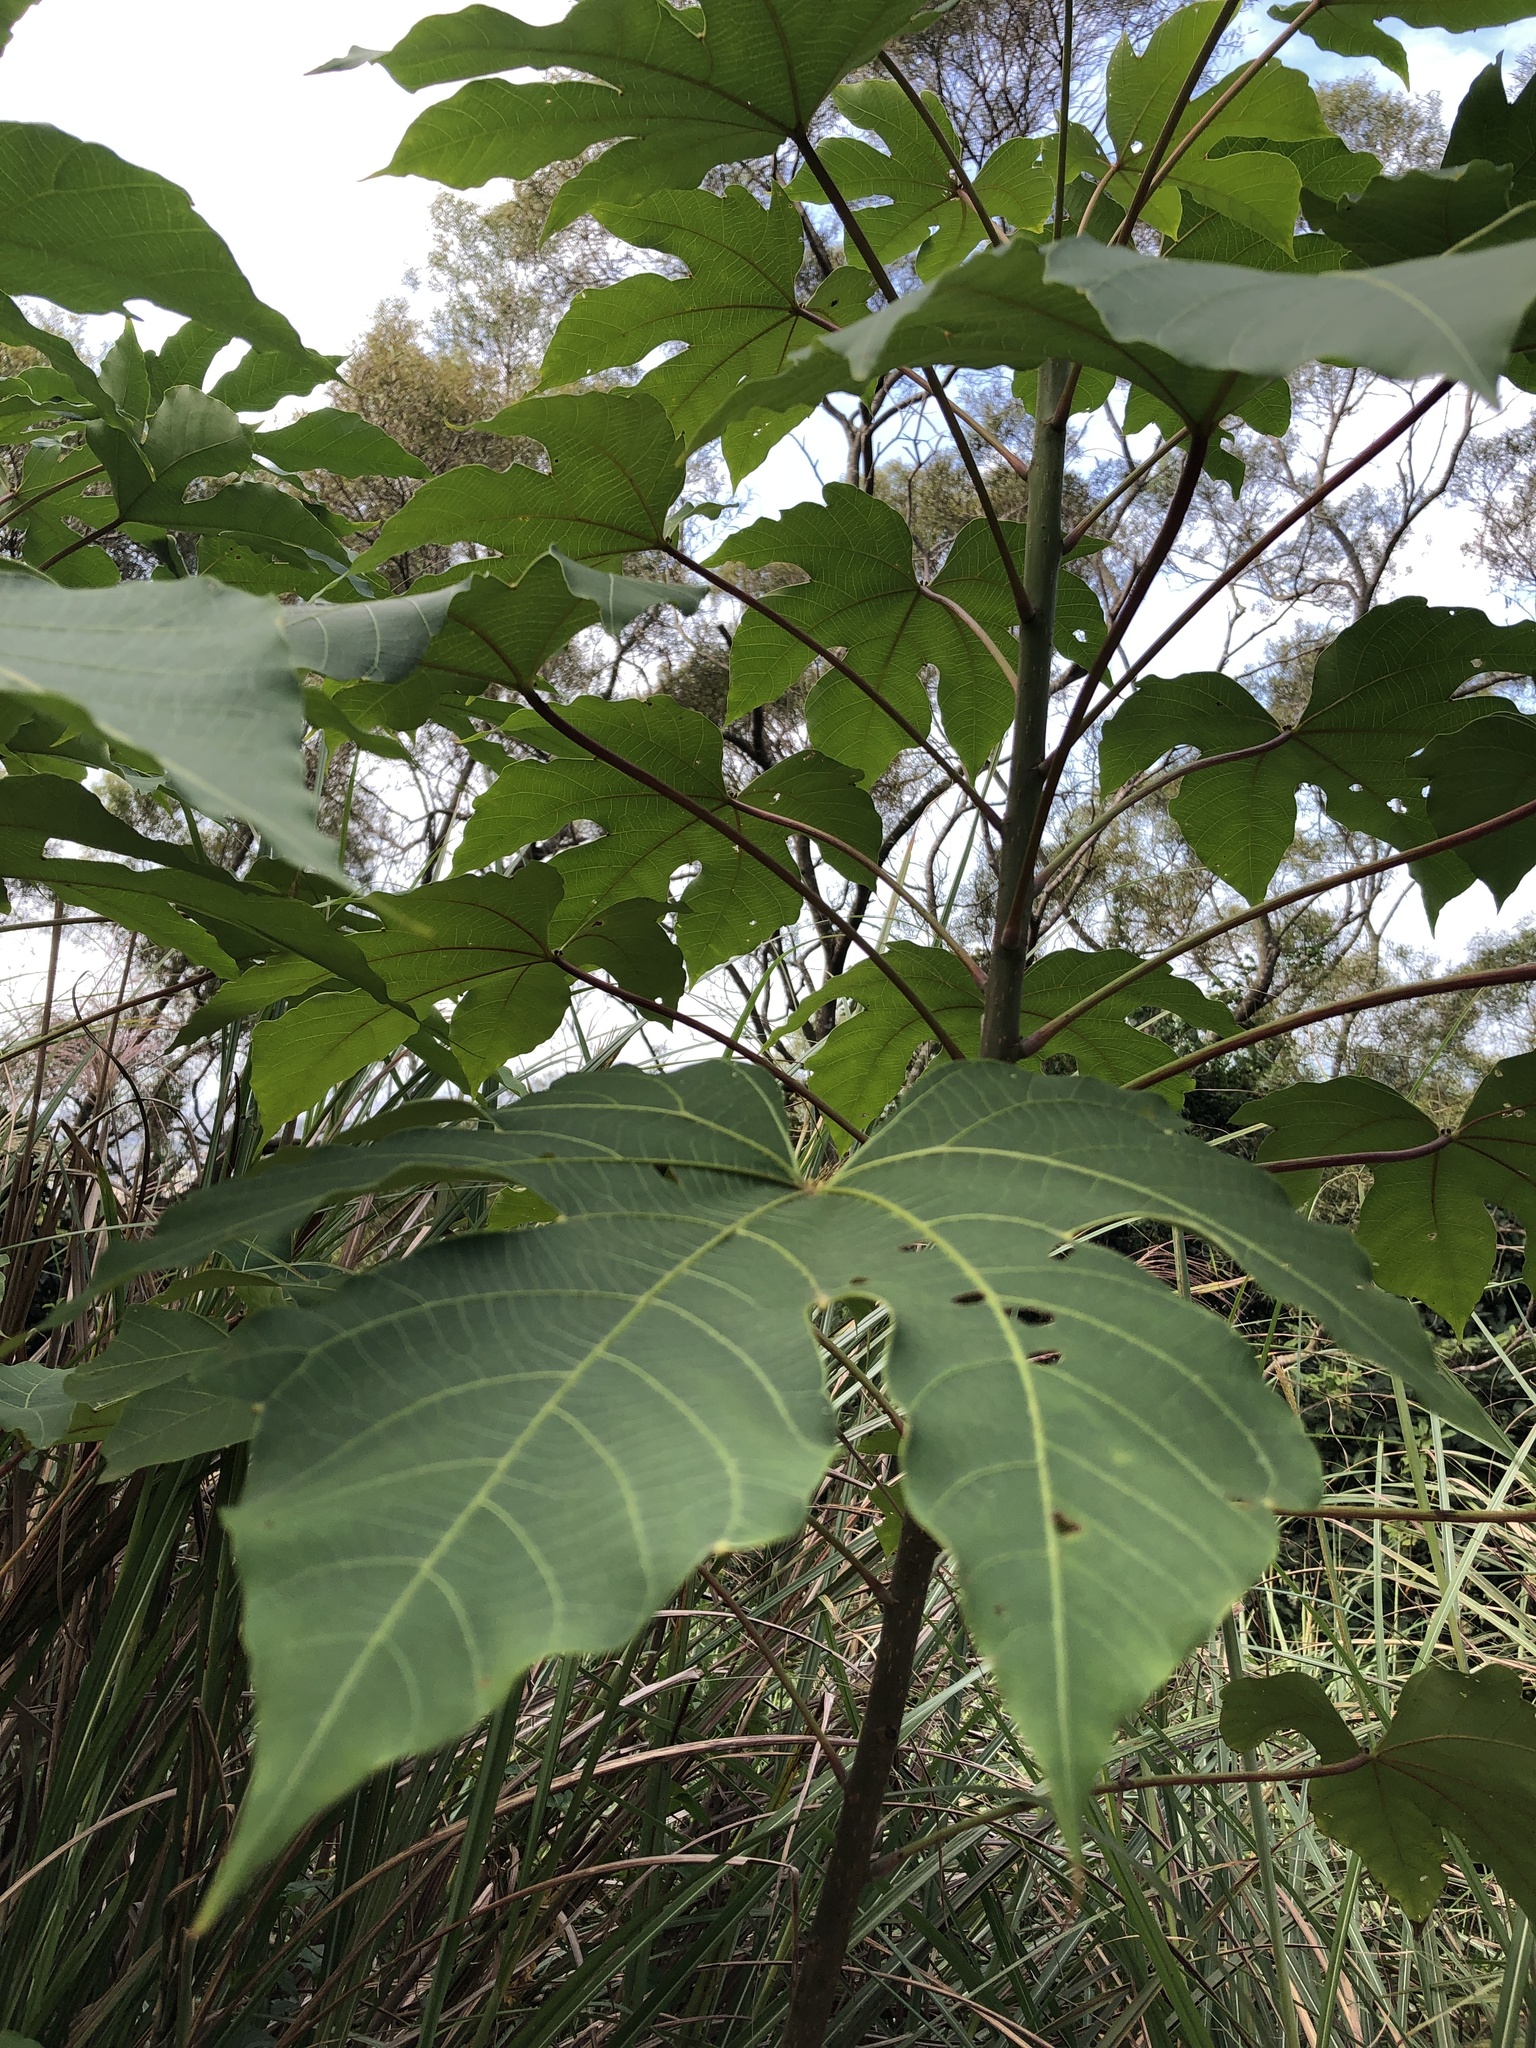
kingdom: Plantae
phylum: Tracheophyta
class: Magnoliopsida
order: Malpighiales
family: Euphorbiaceae
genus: Vernicia
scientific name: Vernicia montana
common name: Mu oil tree
